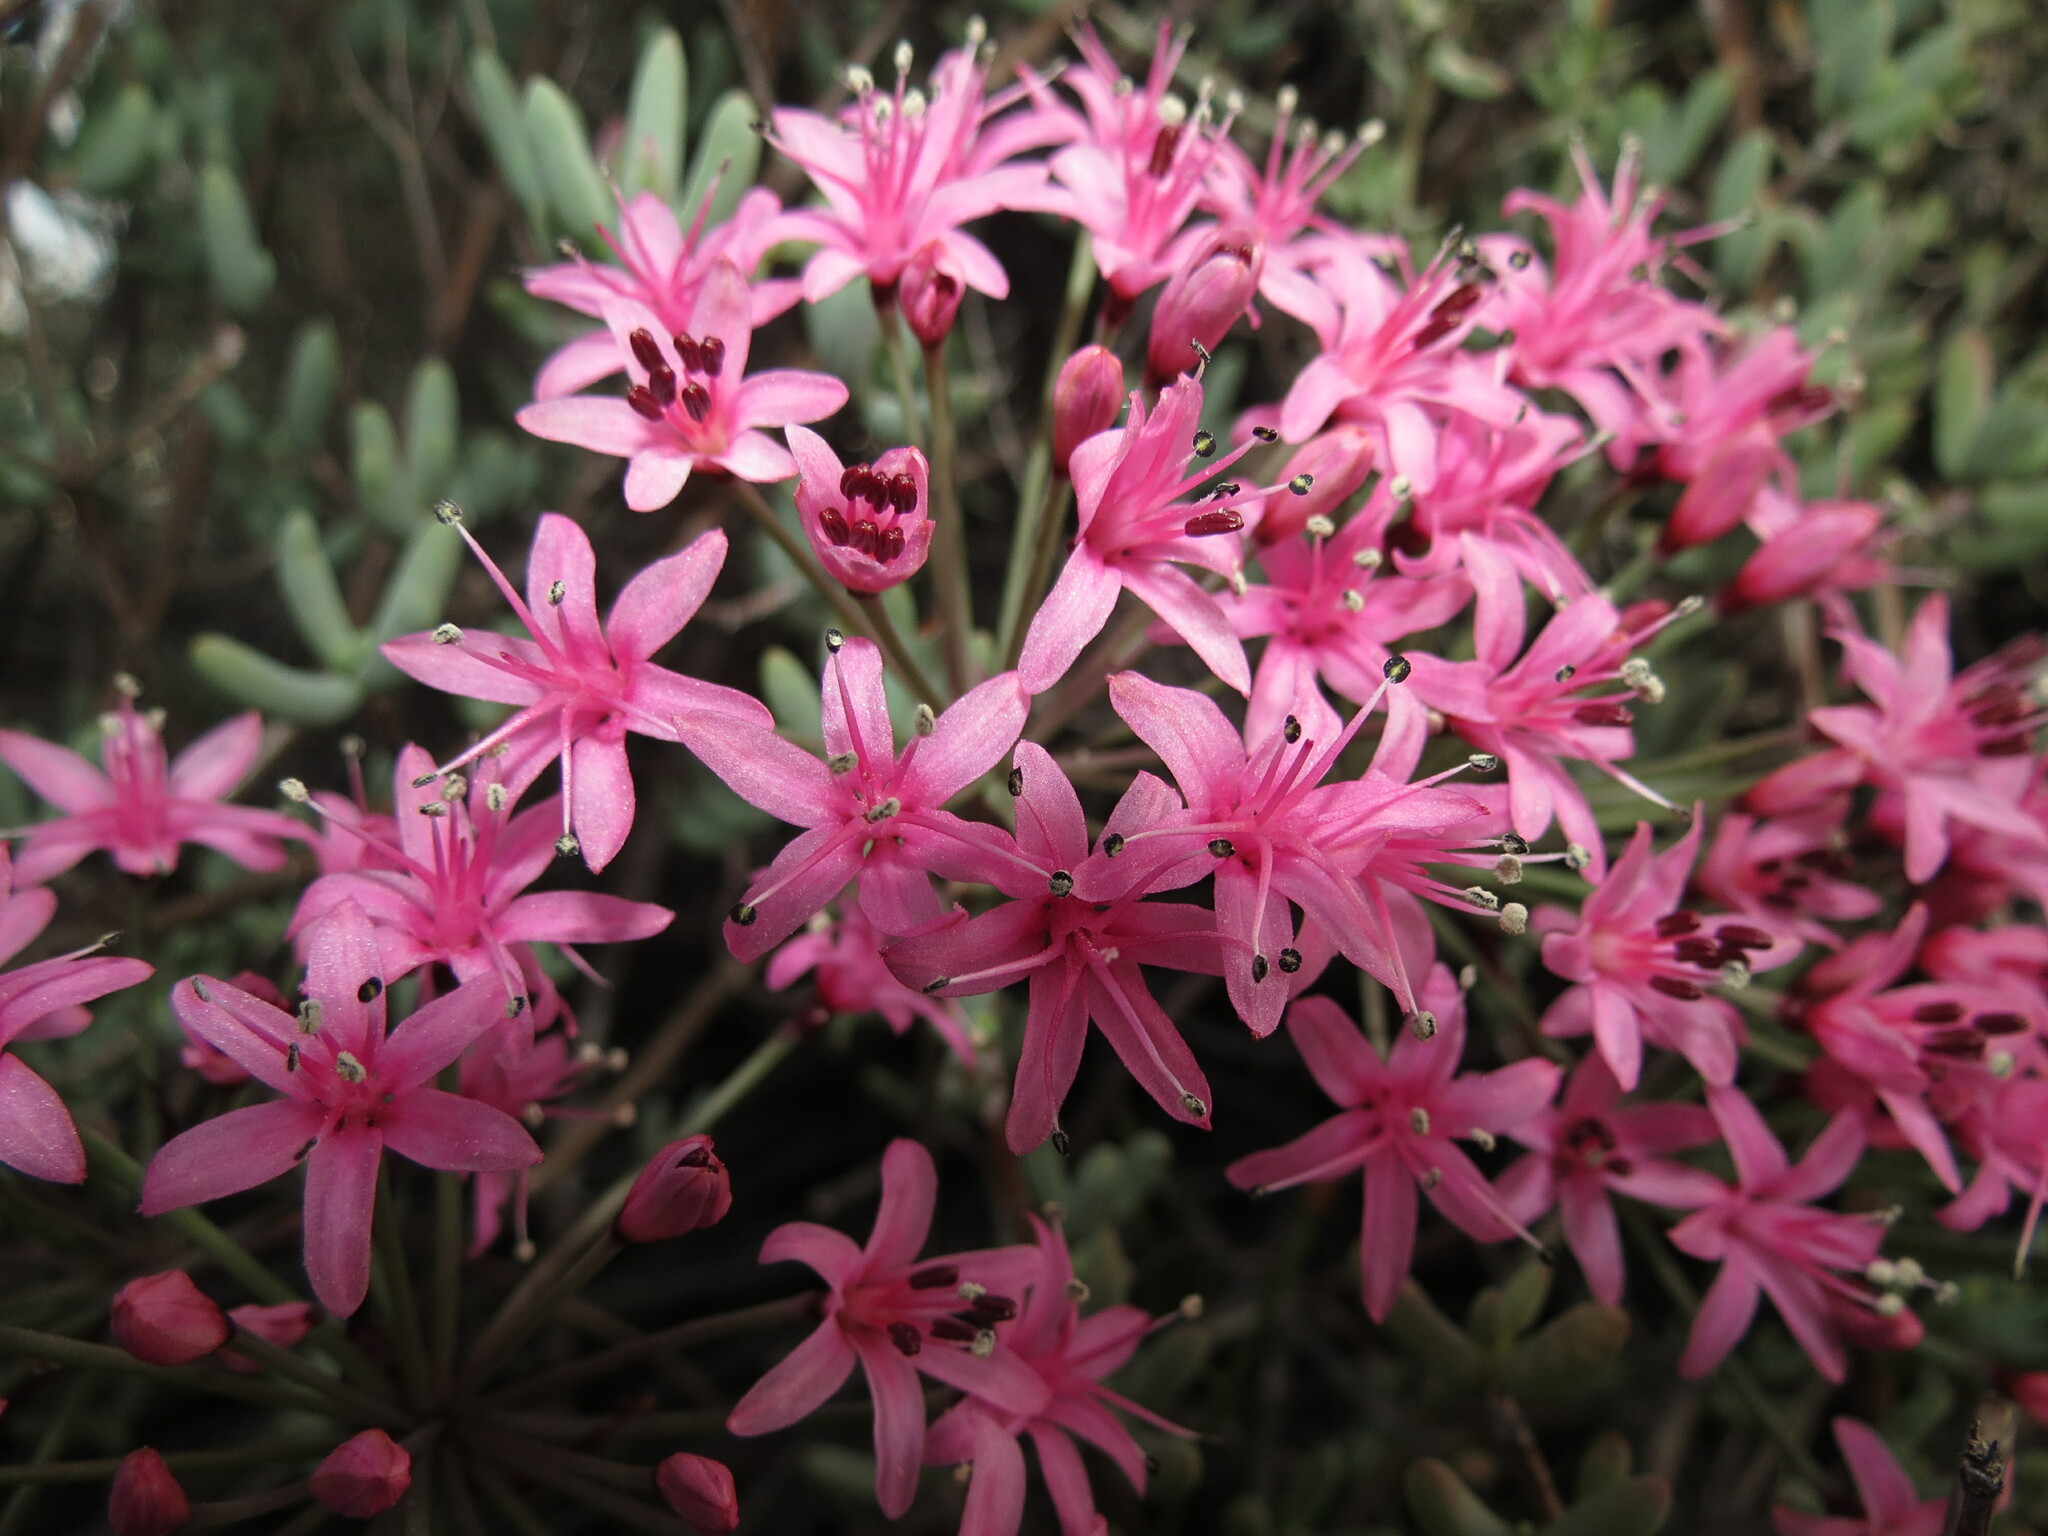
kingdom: Plantae
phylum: Tracheophyta
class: Liliopsida
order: Asparagales
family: Amaryllidaceae
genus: Hessea
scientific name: Hessea breviflora
